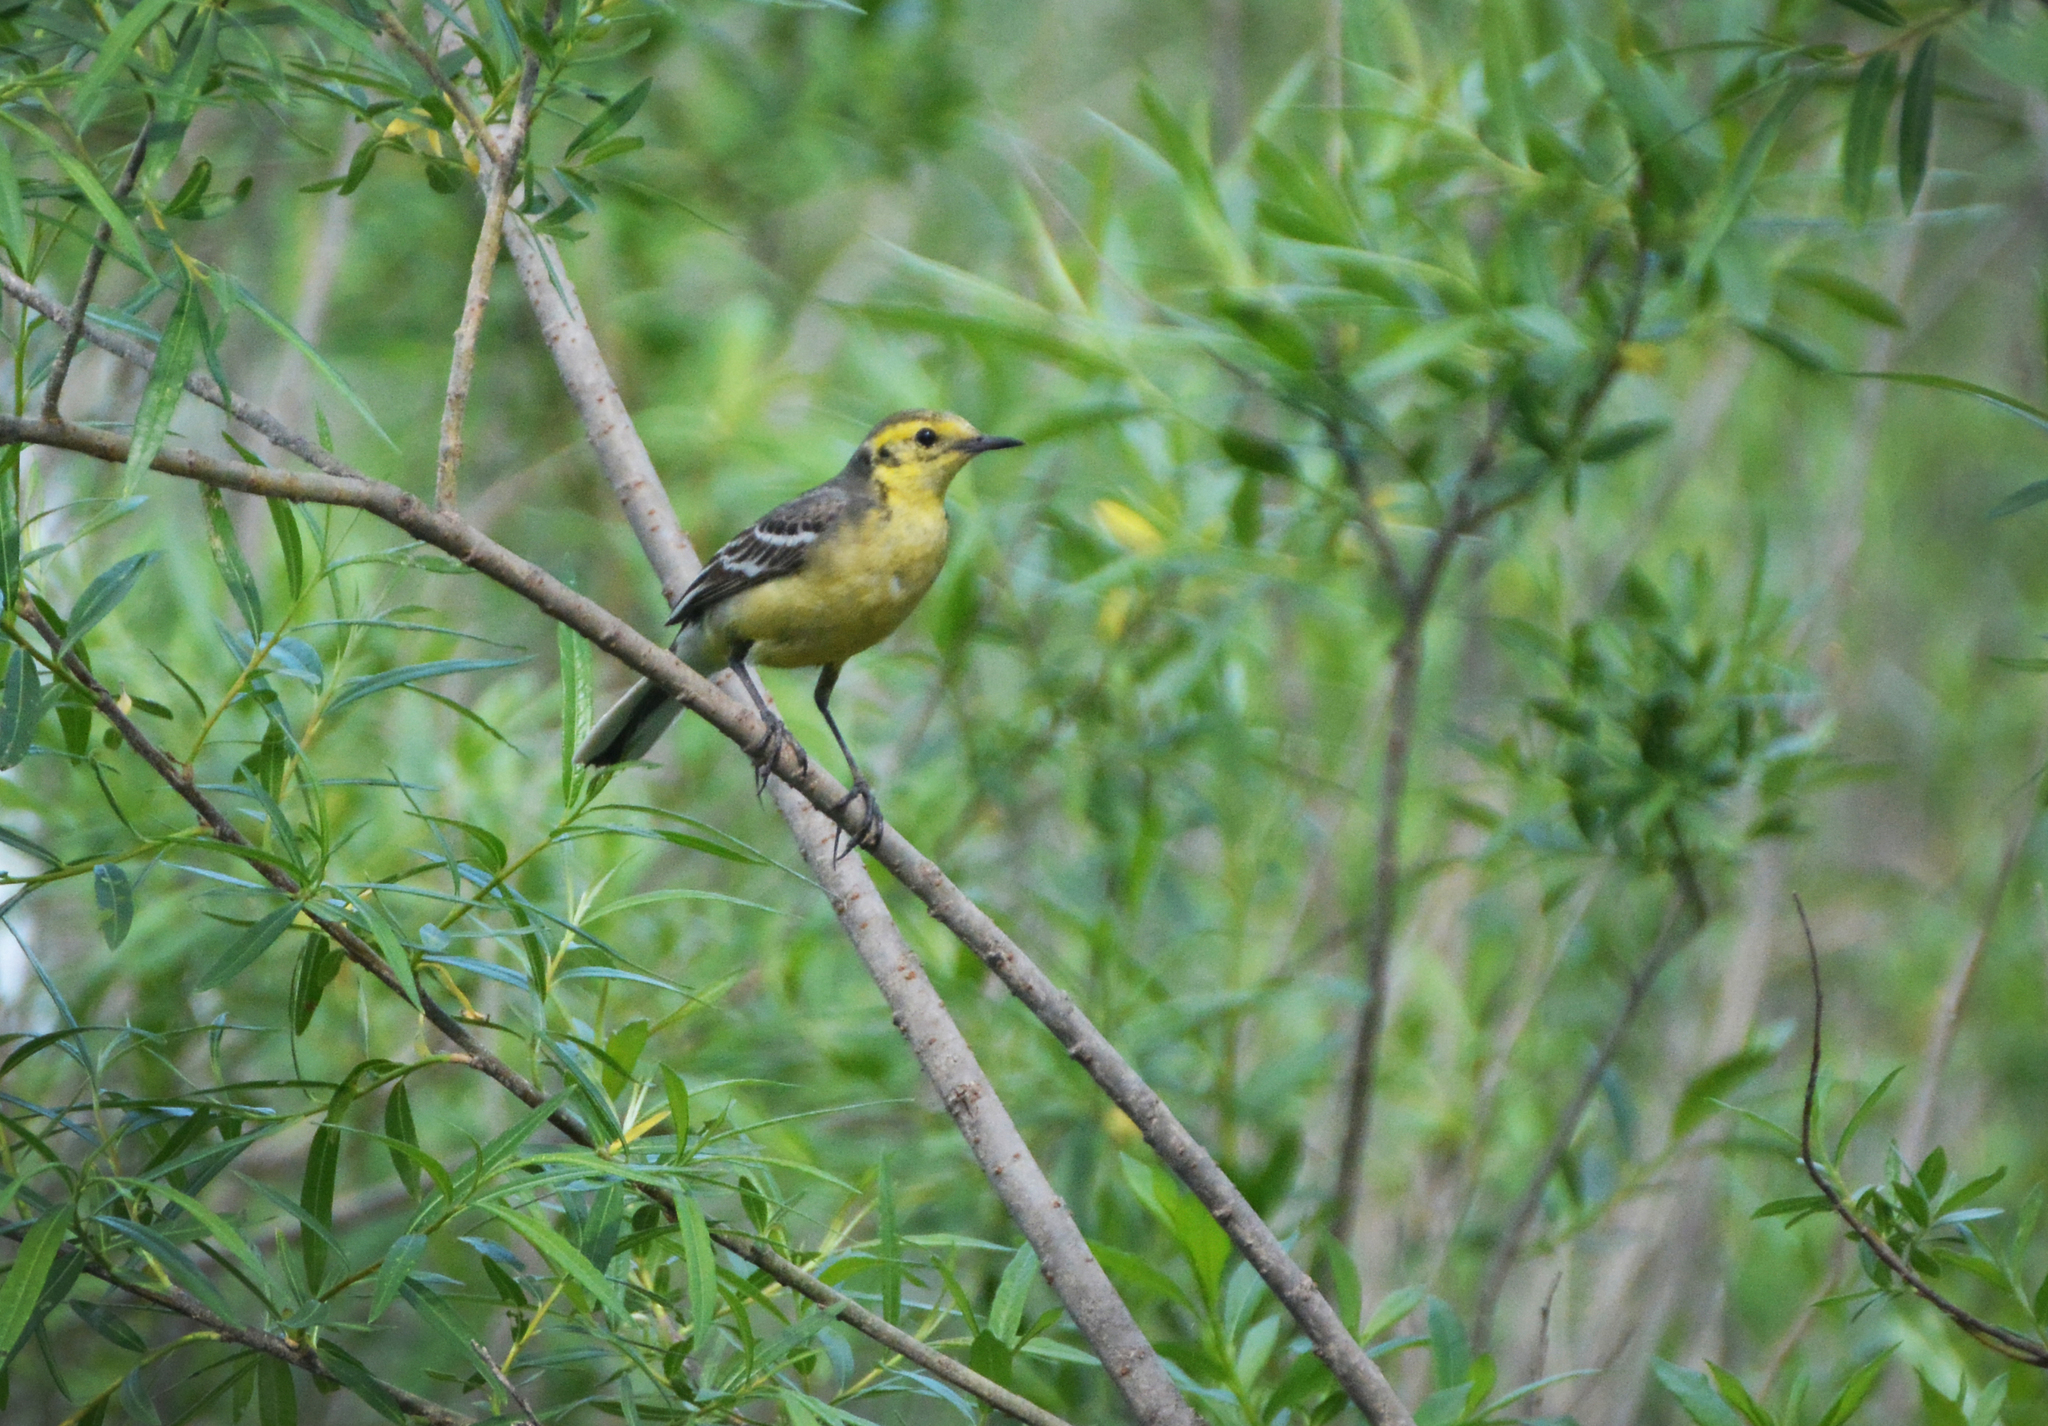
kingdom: Animalia
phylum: Chordata
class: Aves
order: Passeriformes
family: Motacillidae
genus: Motacilla
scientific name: Motacilla citreola
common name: Citrine wagtail
